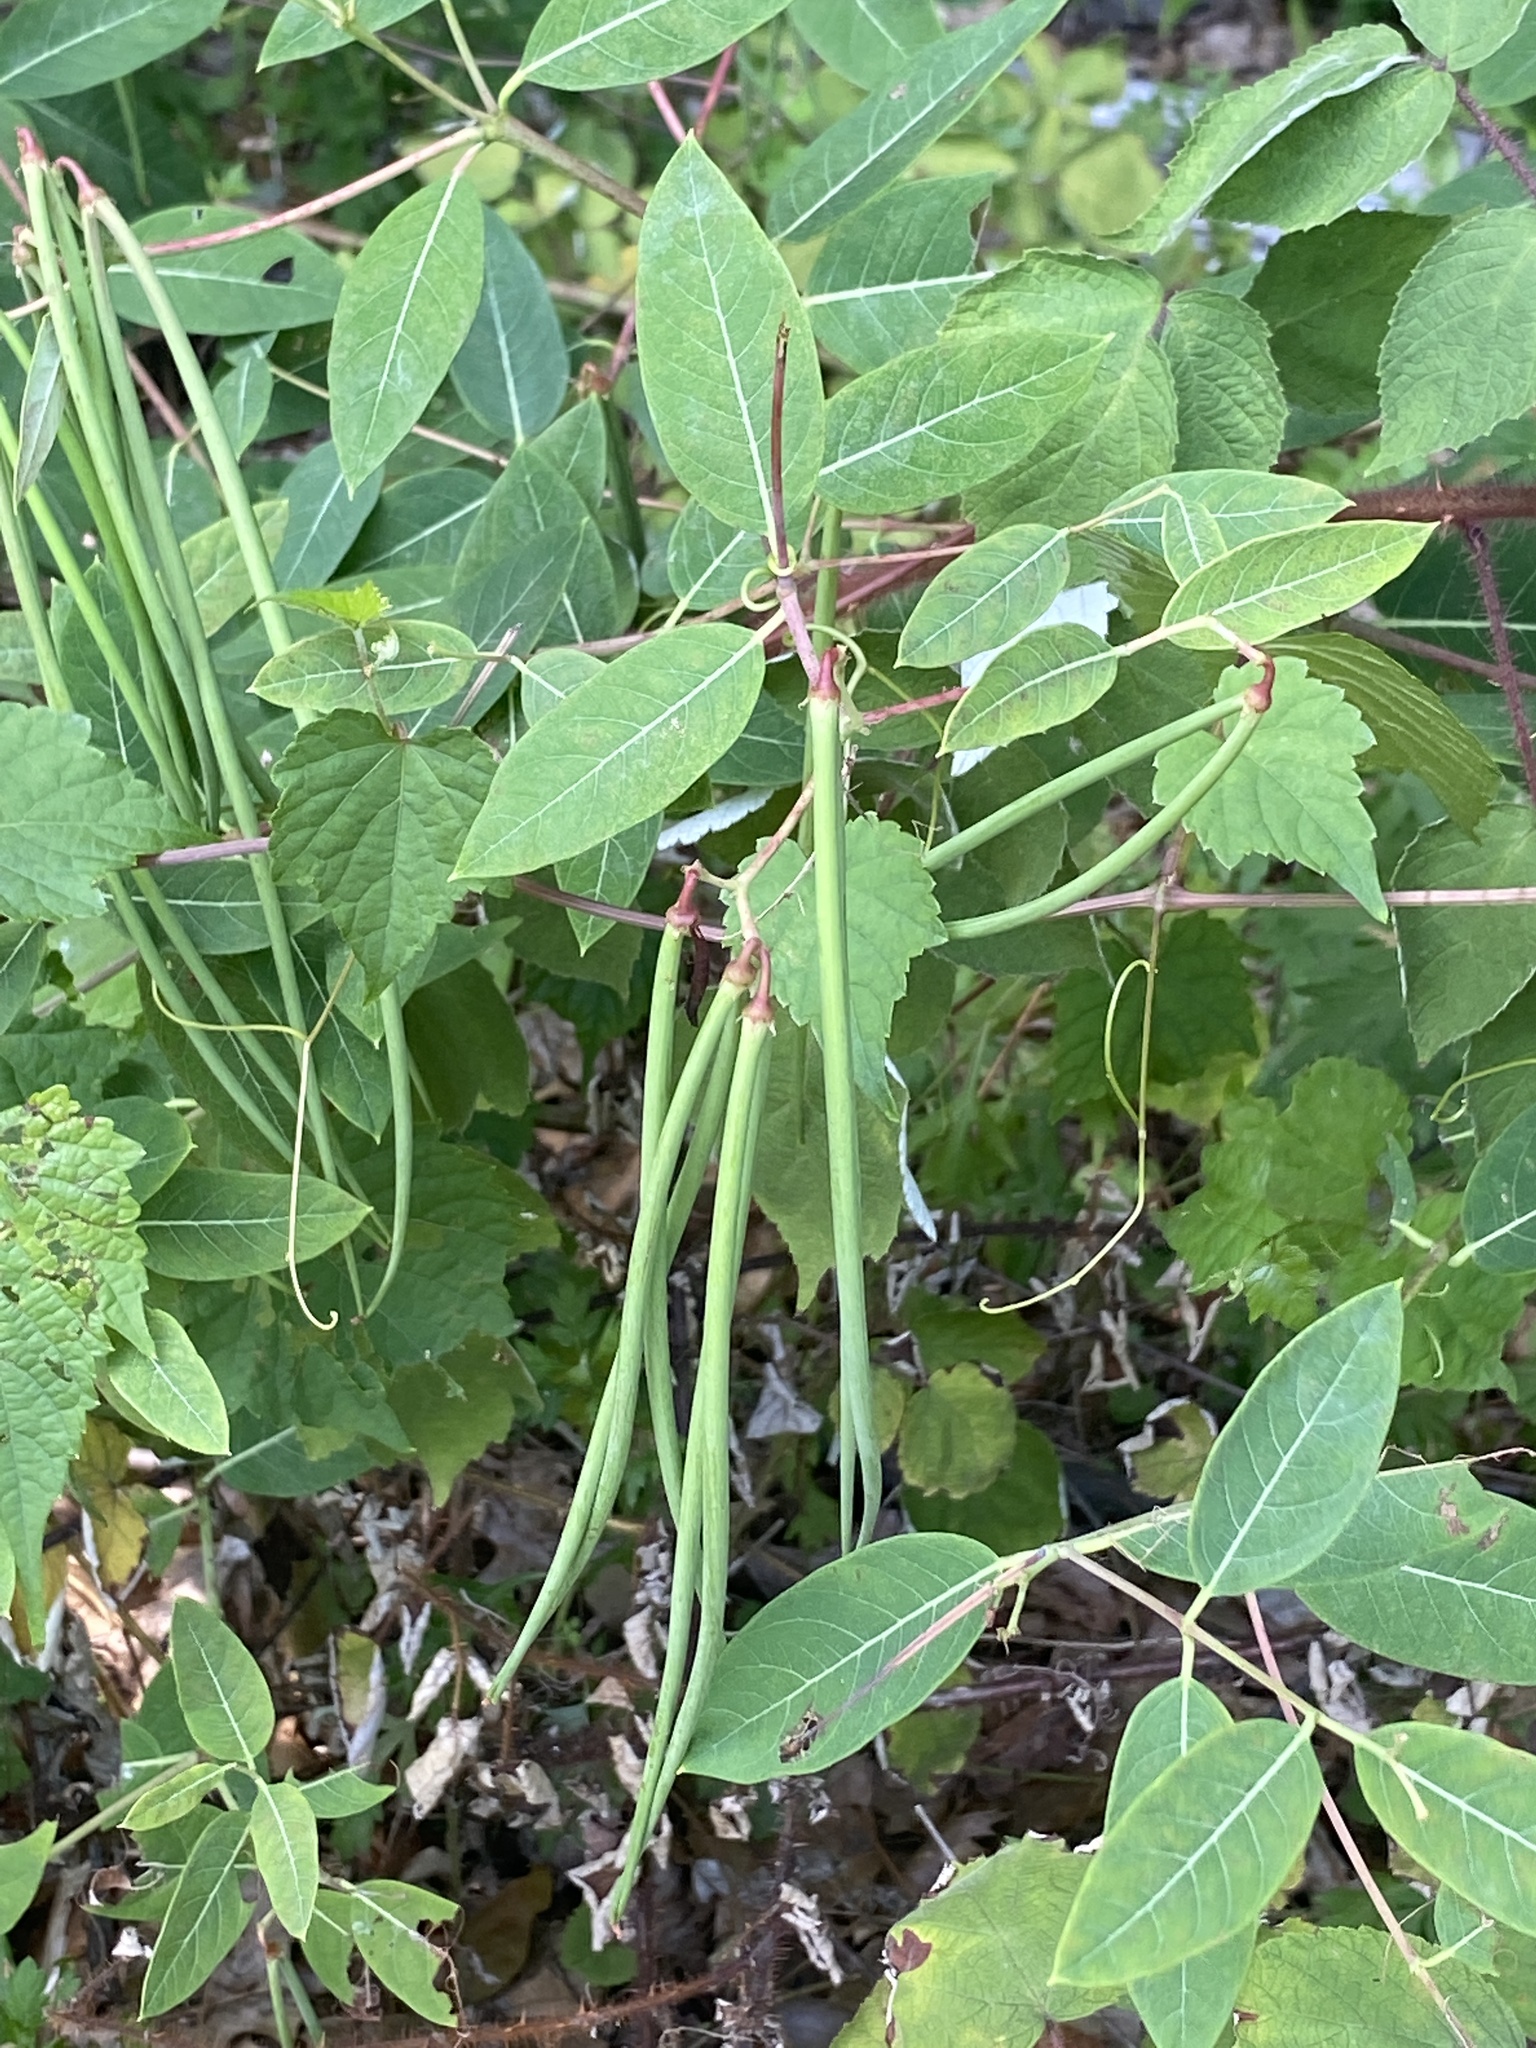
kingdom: Plantae
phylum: Tracheophyta
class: Magnoliopsida
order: Gentianales
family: Apocynaceae
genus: Apocynum
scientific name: Apocynum cannabinum
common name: Hemp dogbane
